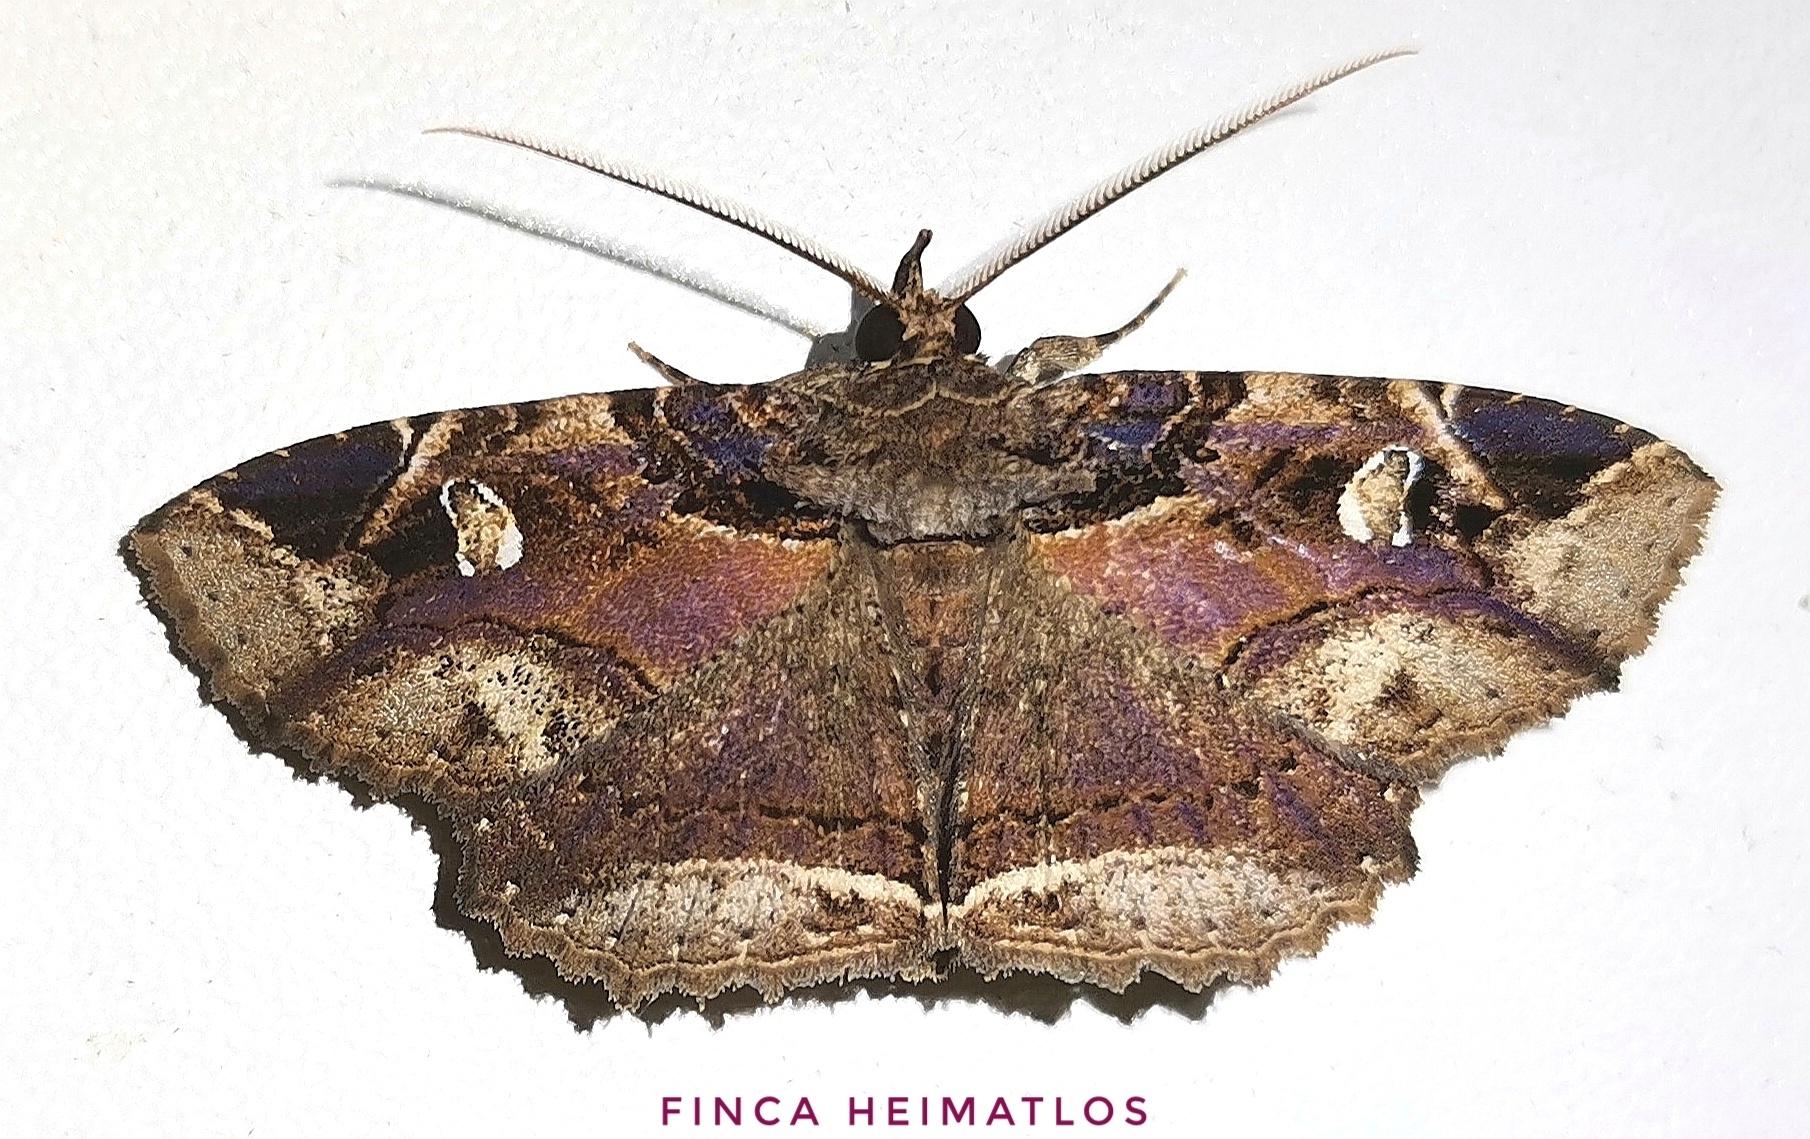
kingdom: Animalia
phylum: Arthropoda
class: Insecta
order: Lepidoptera
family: Erebidae
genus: Peteroma
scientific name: Peteroma denticulata
